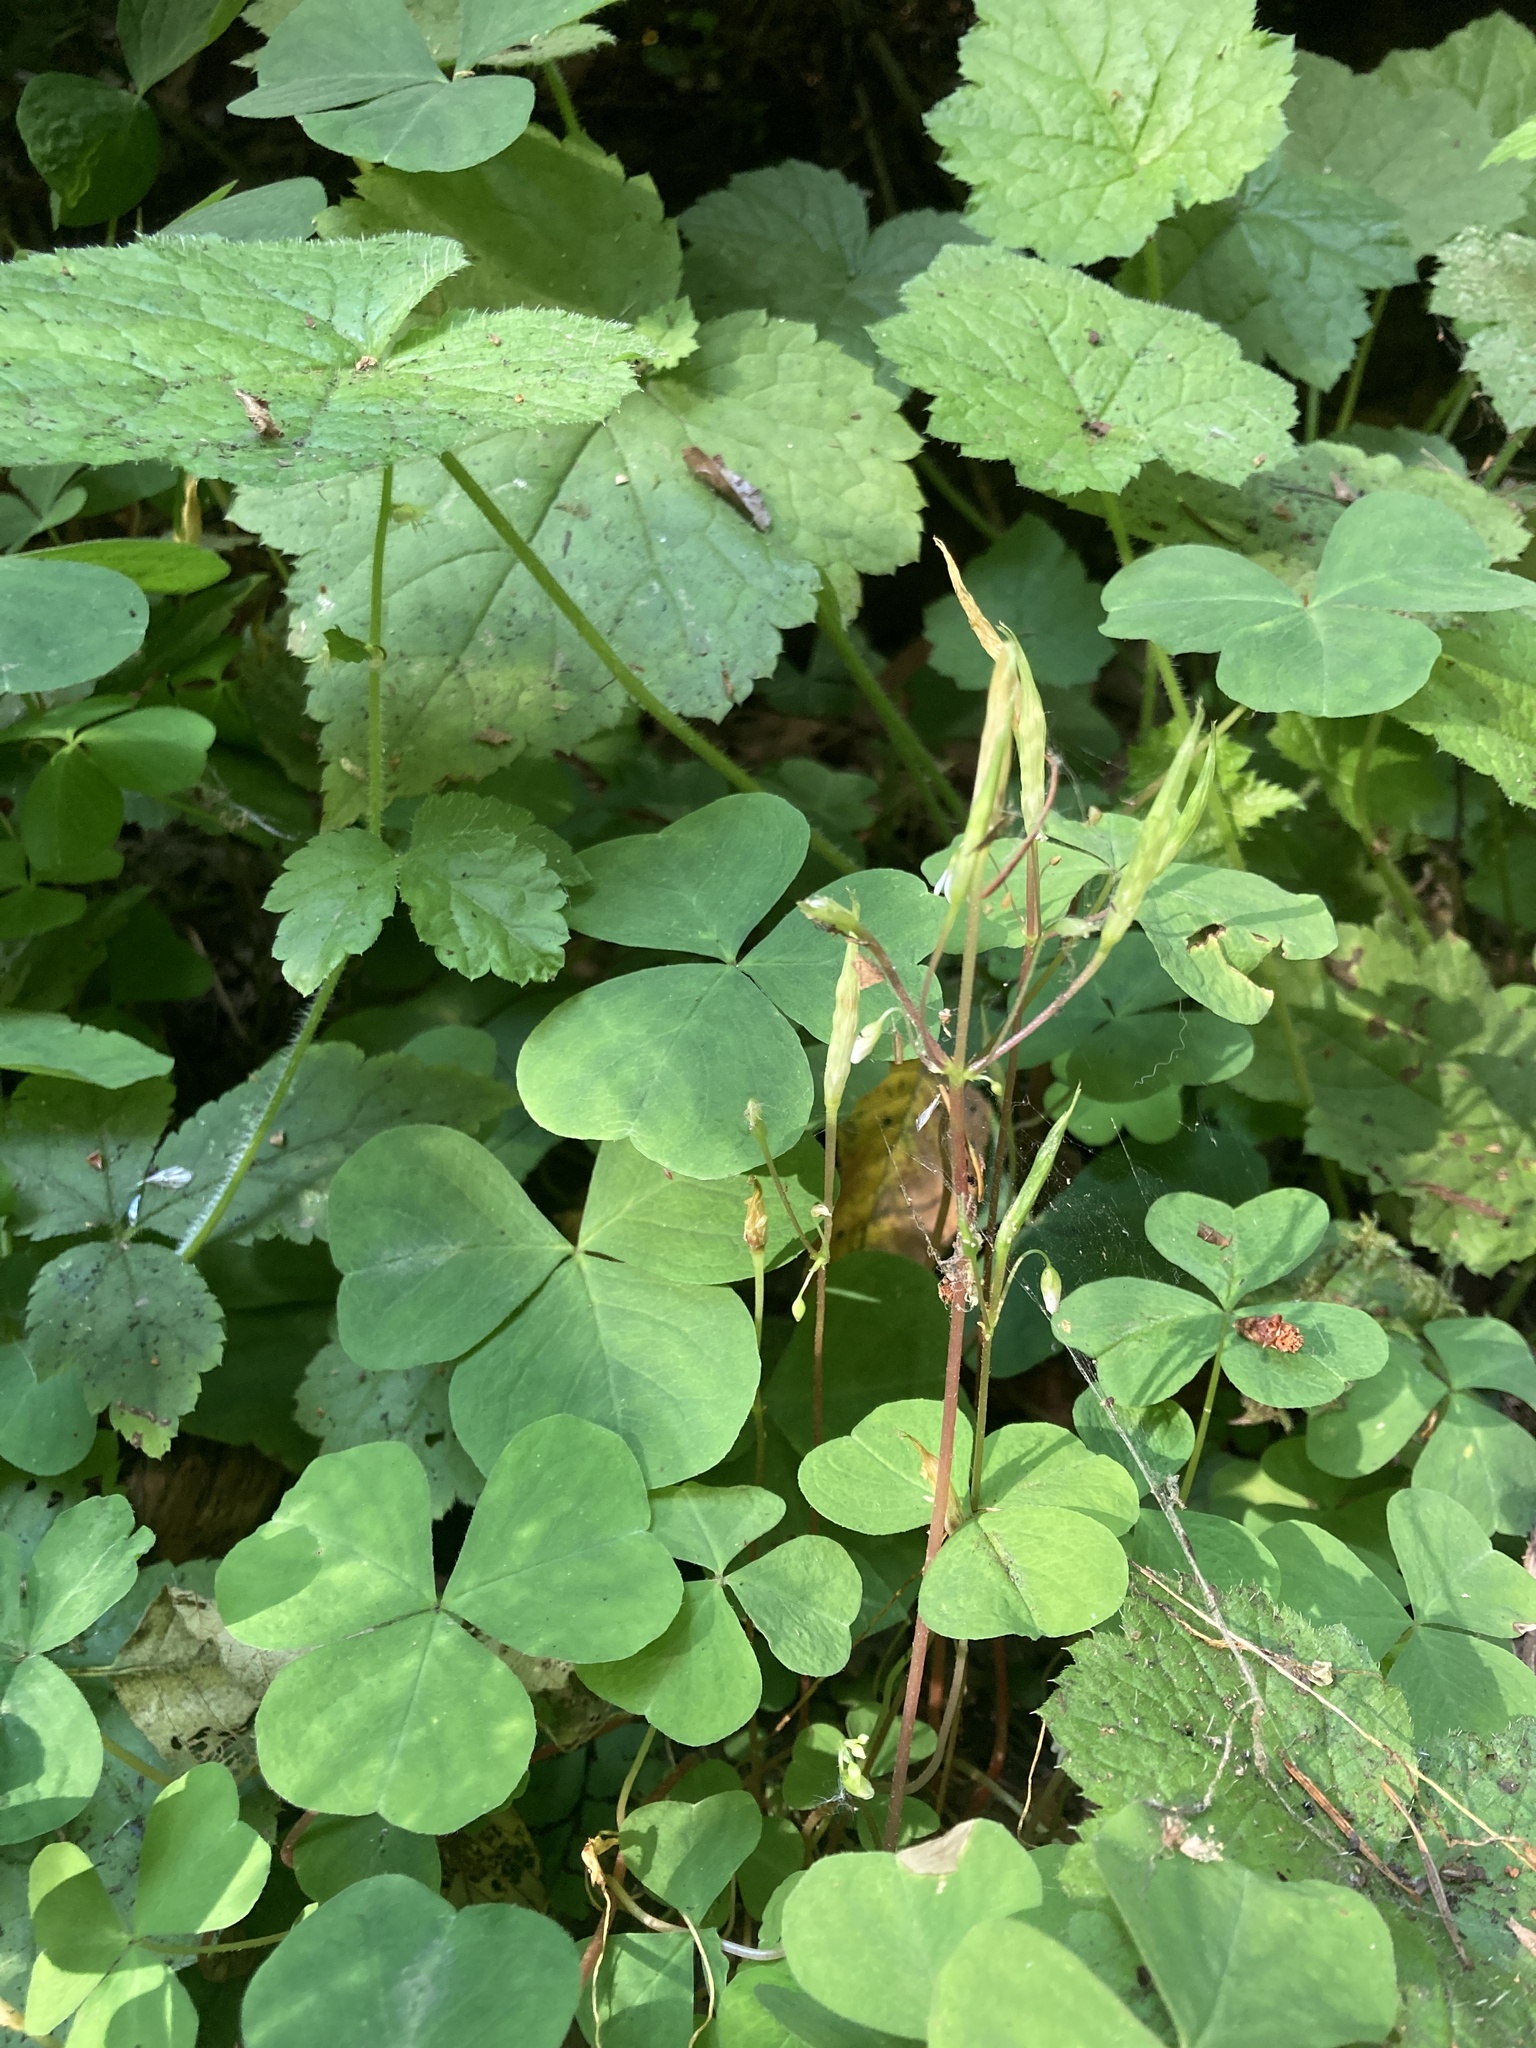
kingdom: Plantae
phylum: Tracheophyta
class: Magnoliopsida
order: Oxalidales
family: Oxalidaceae
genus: Oxalis
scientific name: Oxalis trilliifolia
